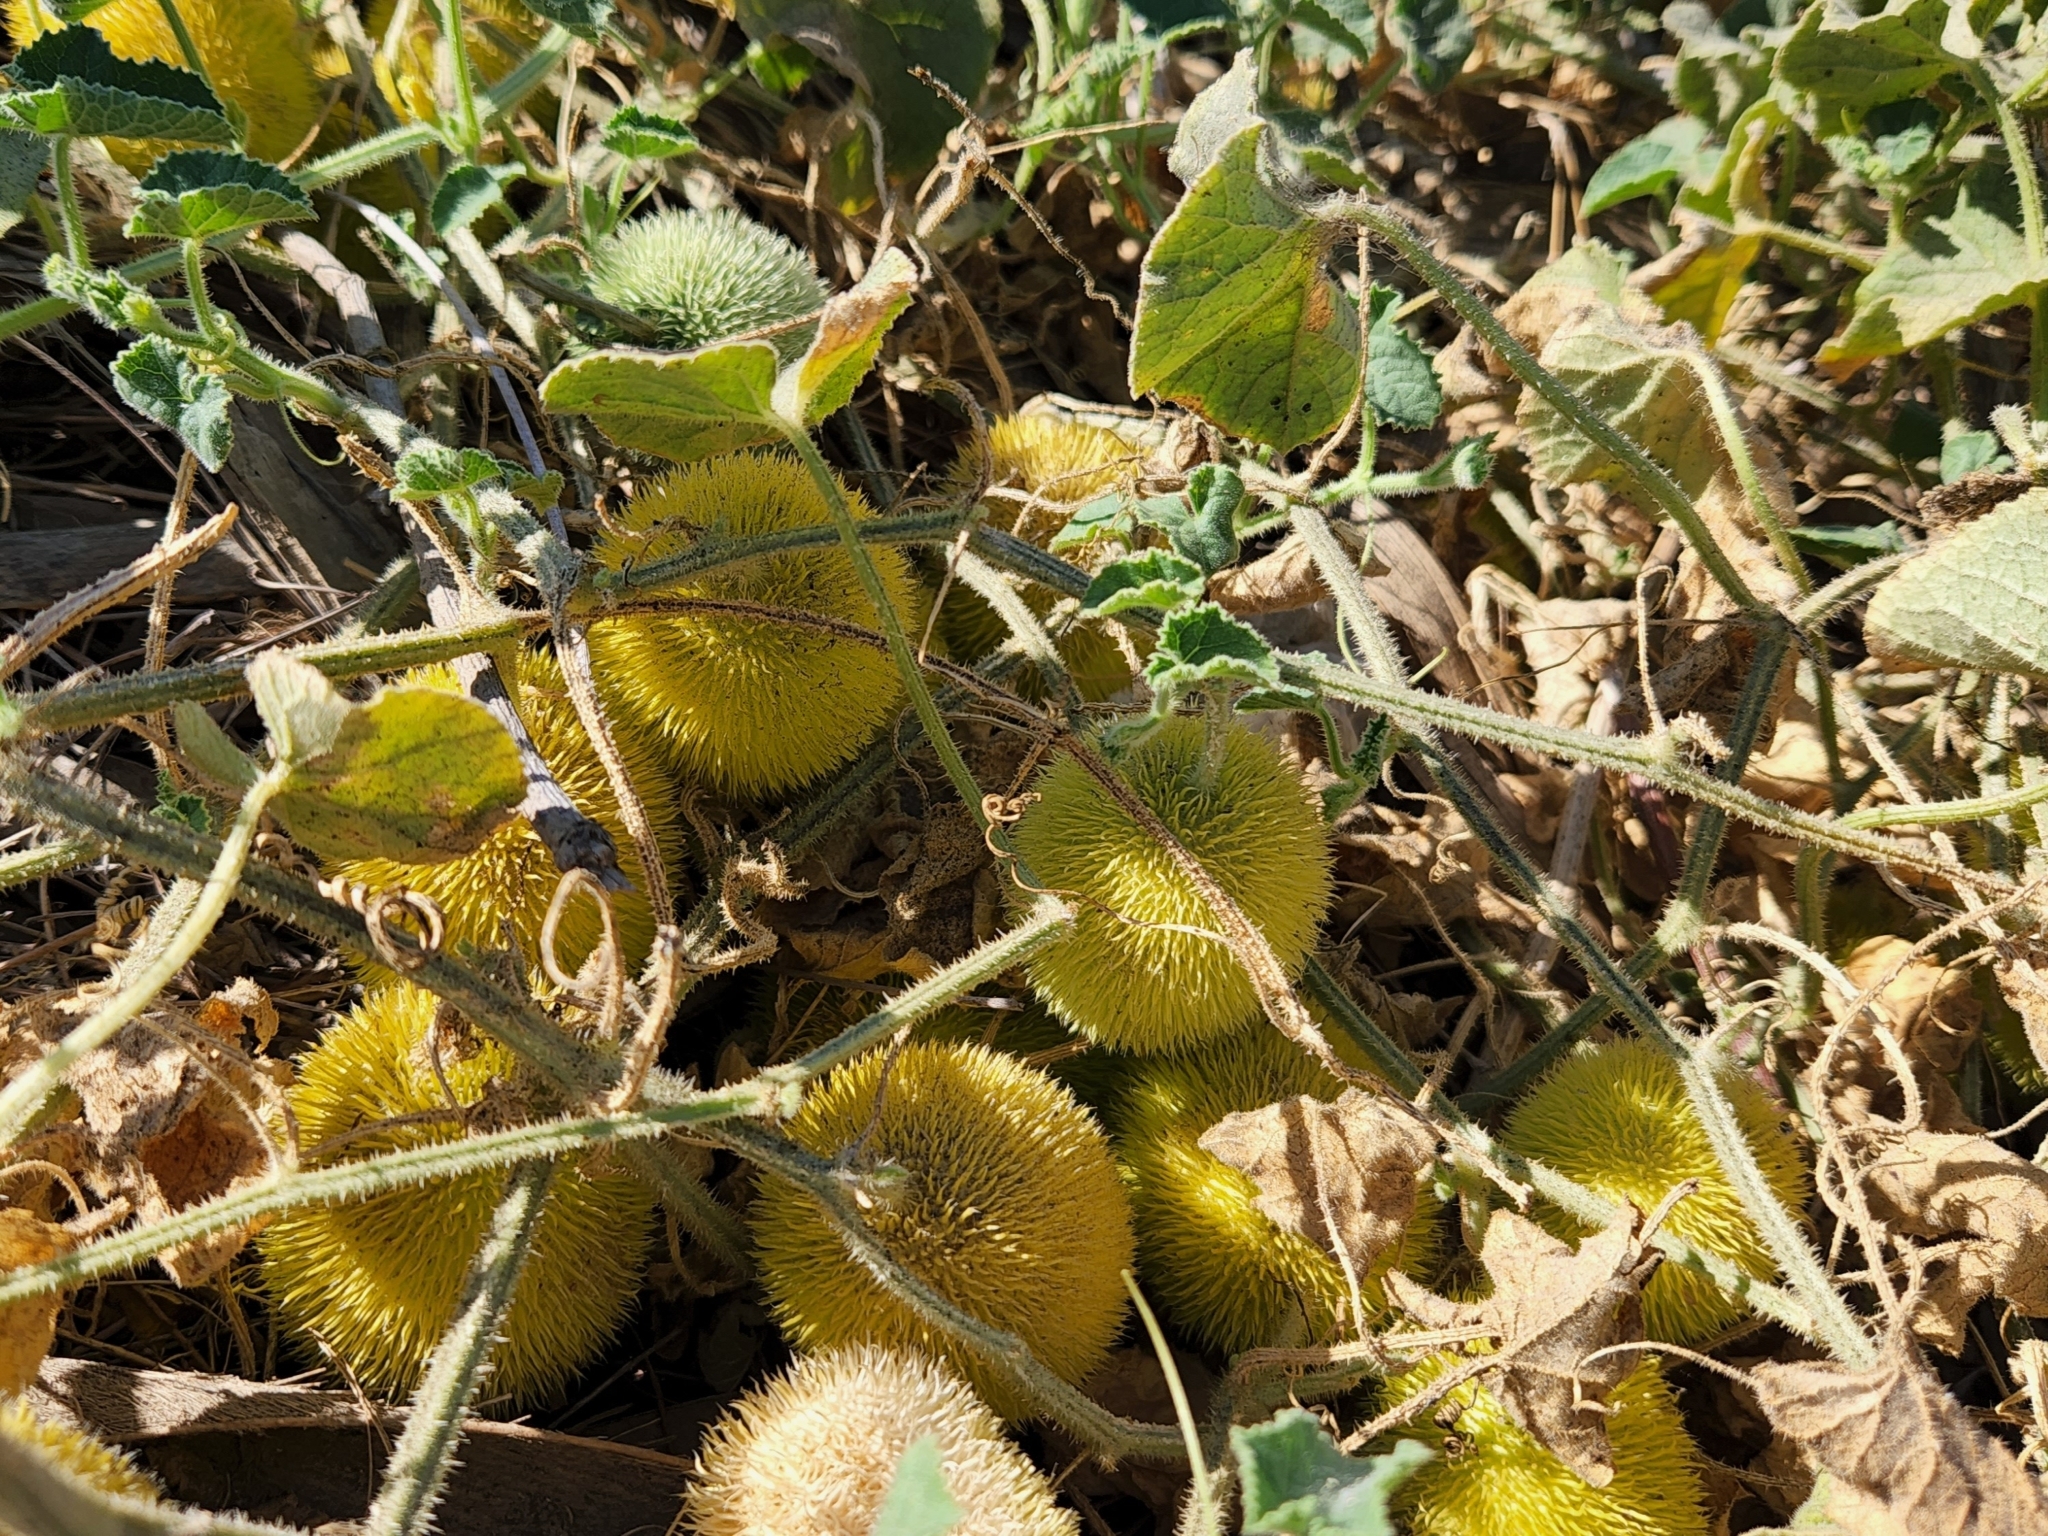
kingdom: Plantae
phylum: Tracheophyta
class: Magnoliopsida
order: Cucurbitales
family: Cucurbitaceae
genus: Cucumis
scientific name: Cucumis dipsaceus
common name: Hedgehog gourd
